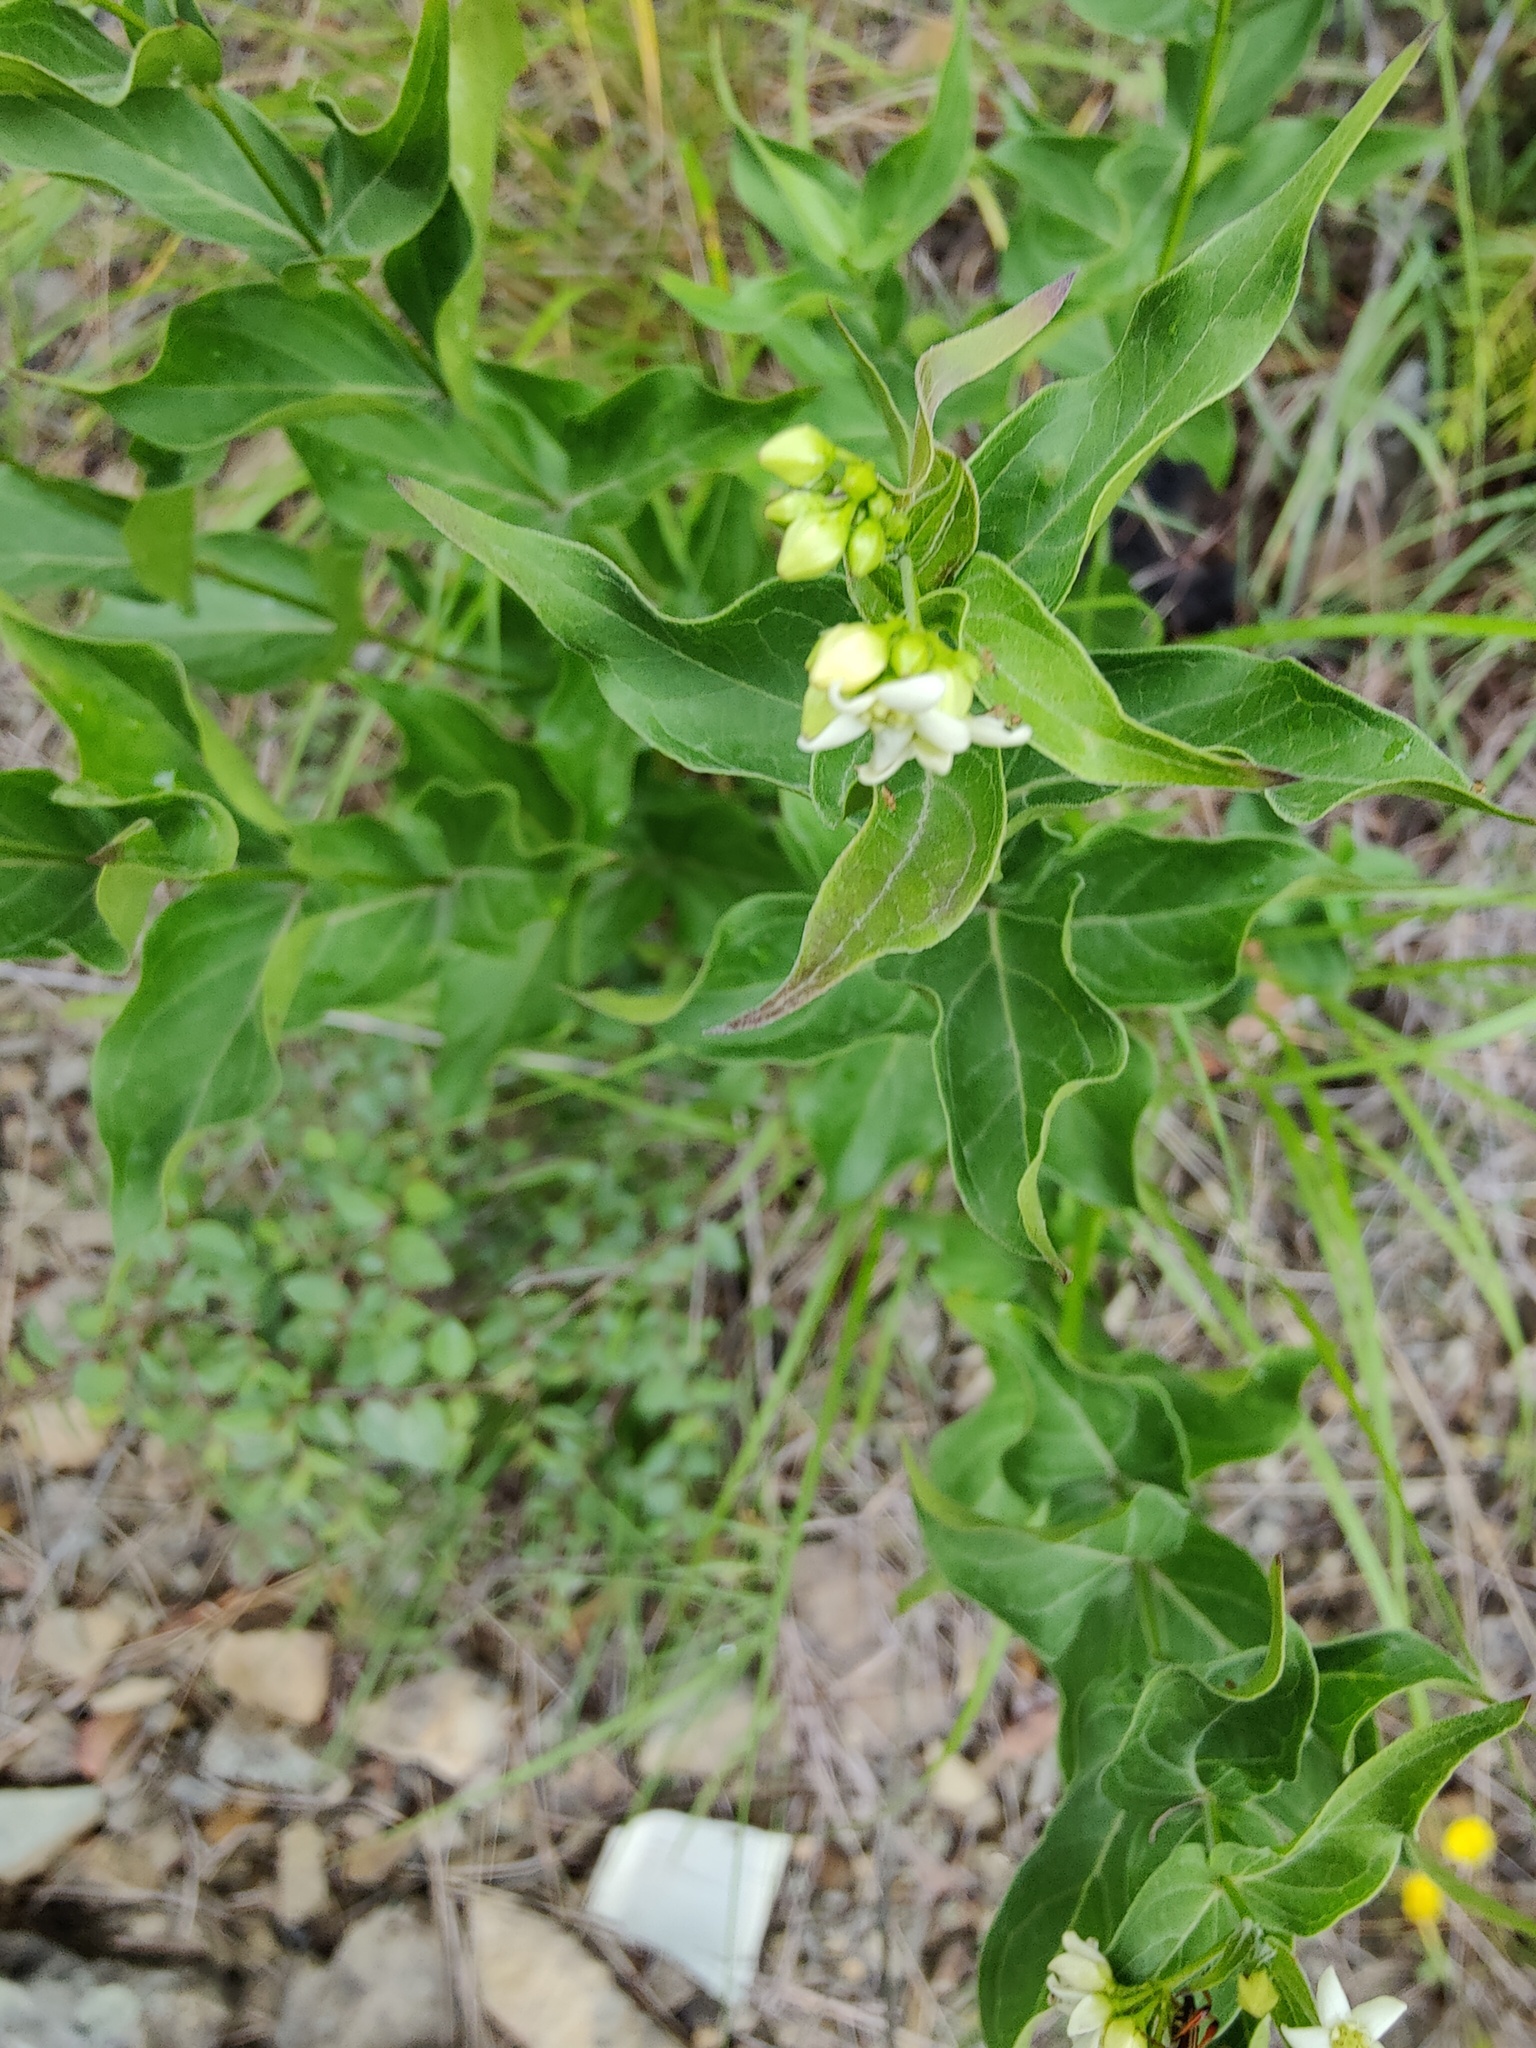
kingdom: Plantae
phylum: Tracheophyta
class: Magnoliopsida
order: Gentianales
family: Apocynaceae
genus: Vincetoxicum
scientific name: Vincetoxicum hirundinaria
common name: White swallowwort
